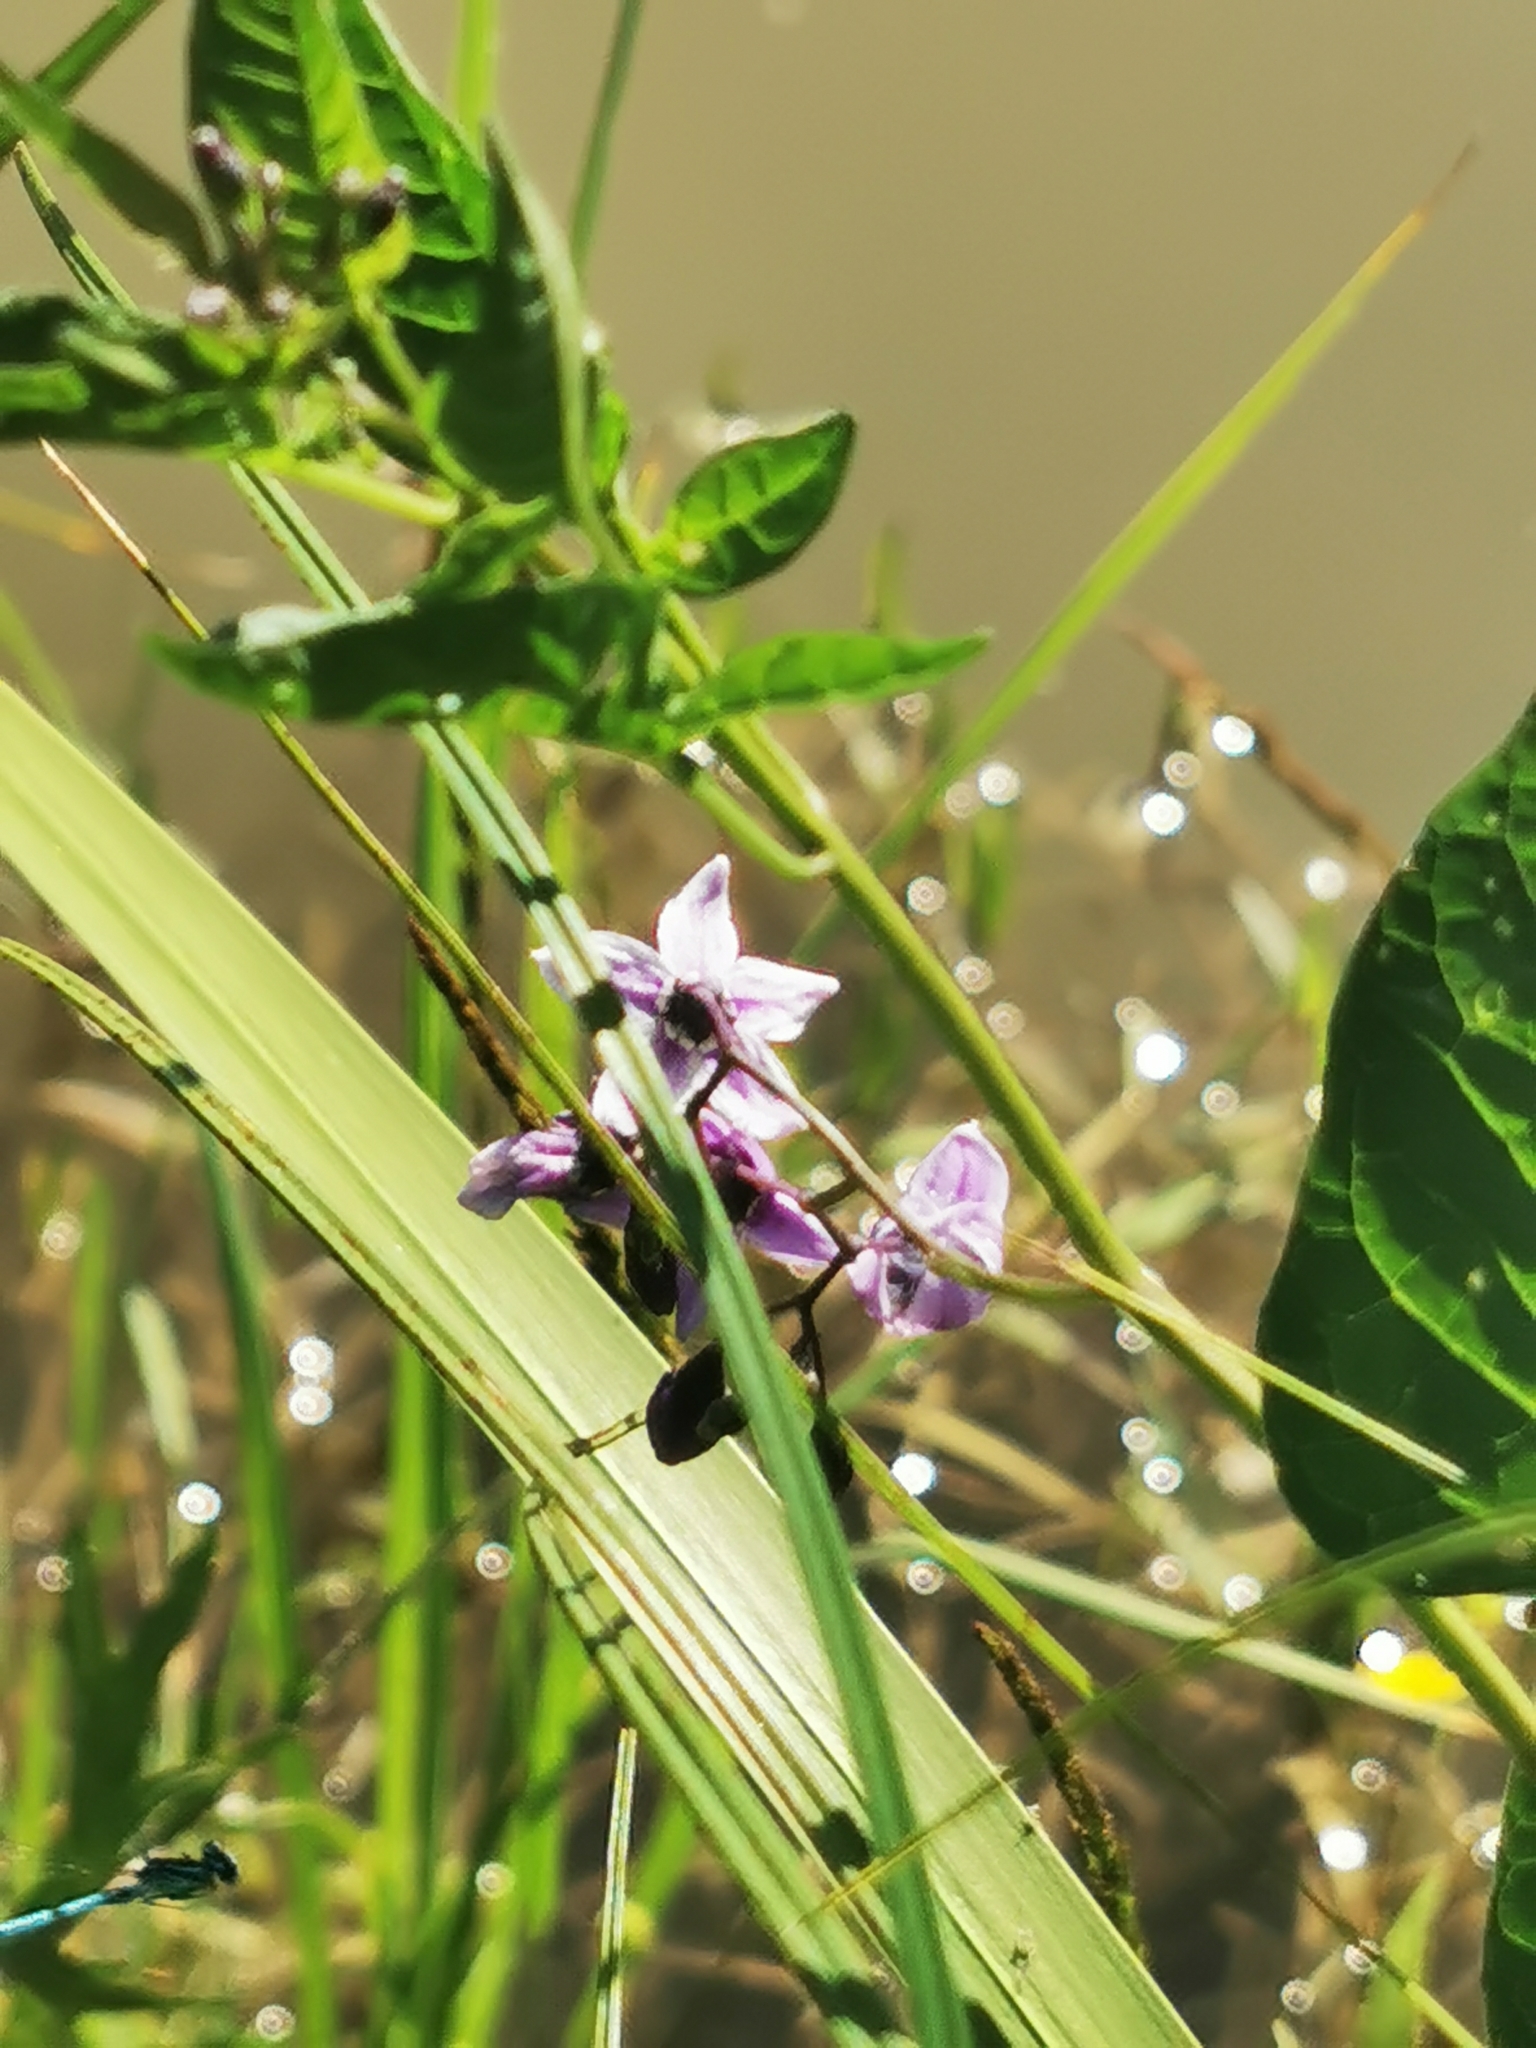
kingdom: Plantae
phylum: Tracheophyta
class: Magnoliopsida
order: Solanales
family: Solanaceae
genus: Solanum
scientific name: Solanum dulcamara
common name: Climbing nightshade
